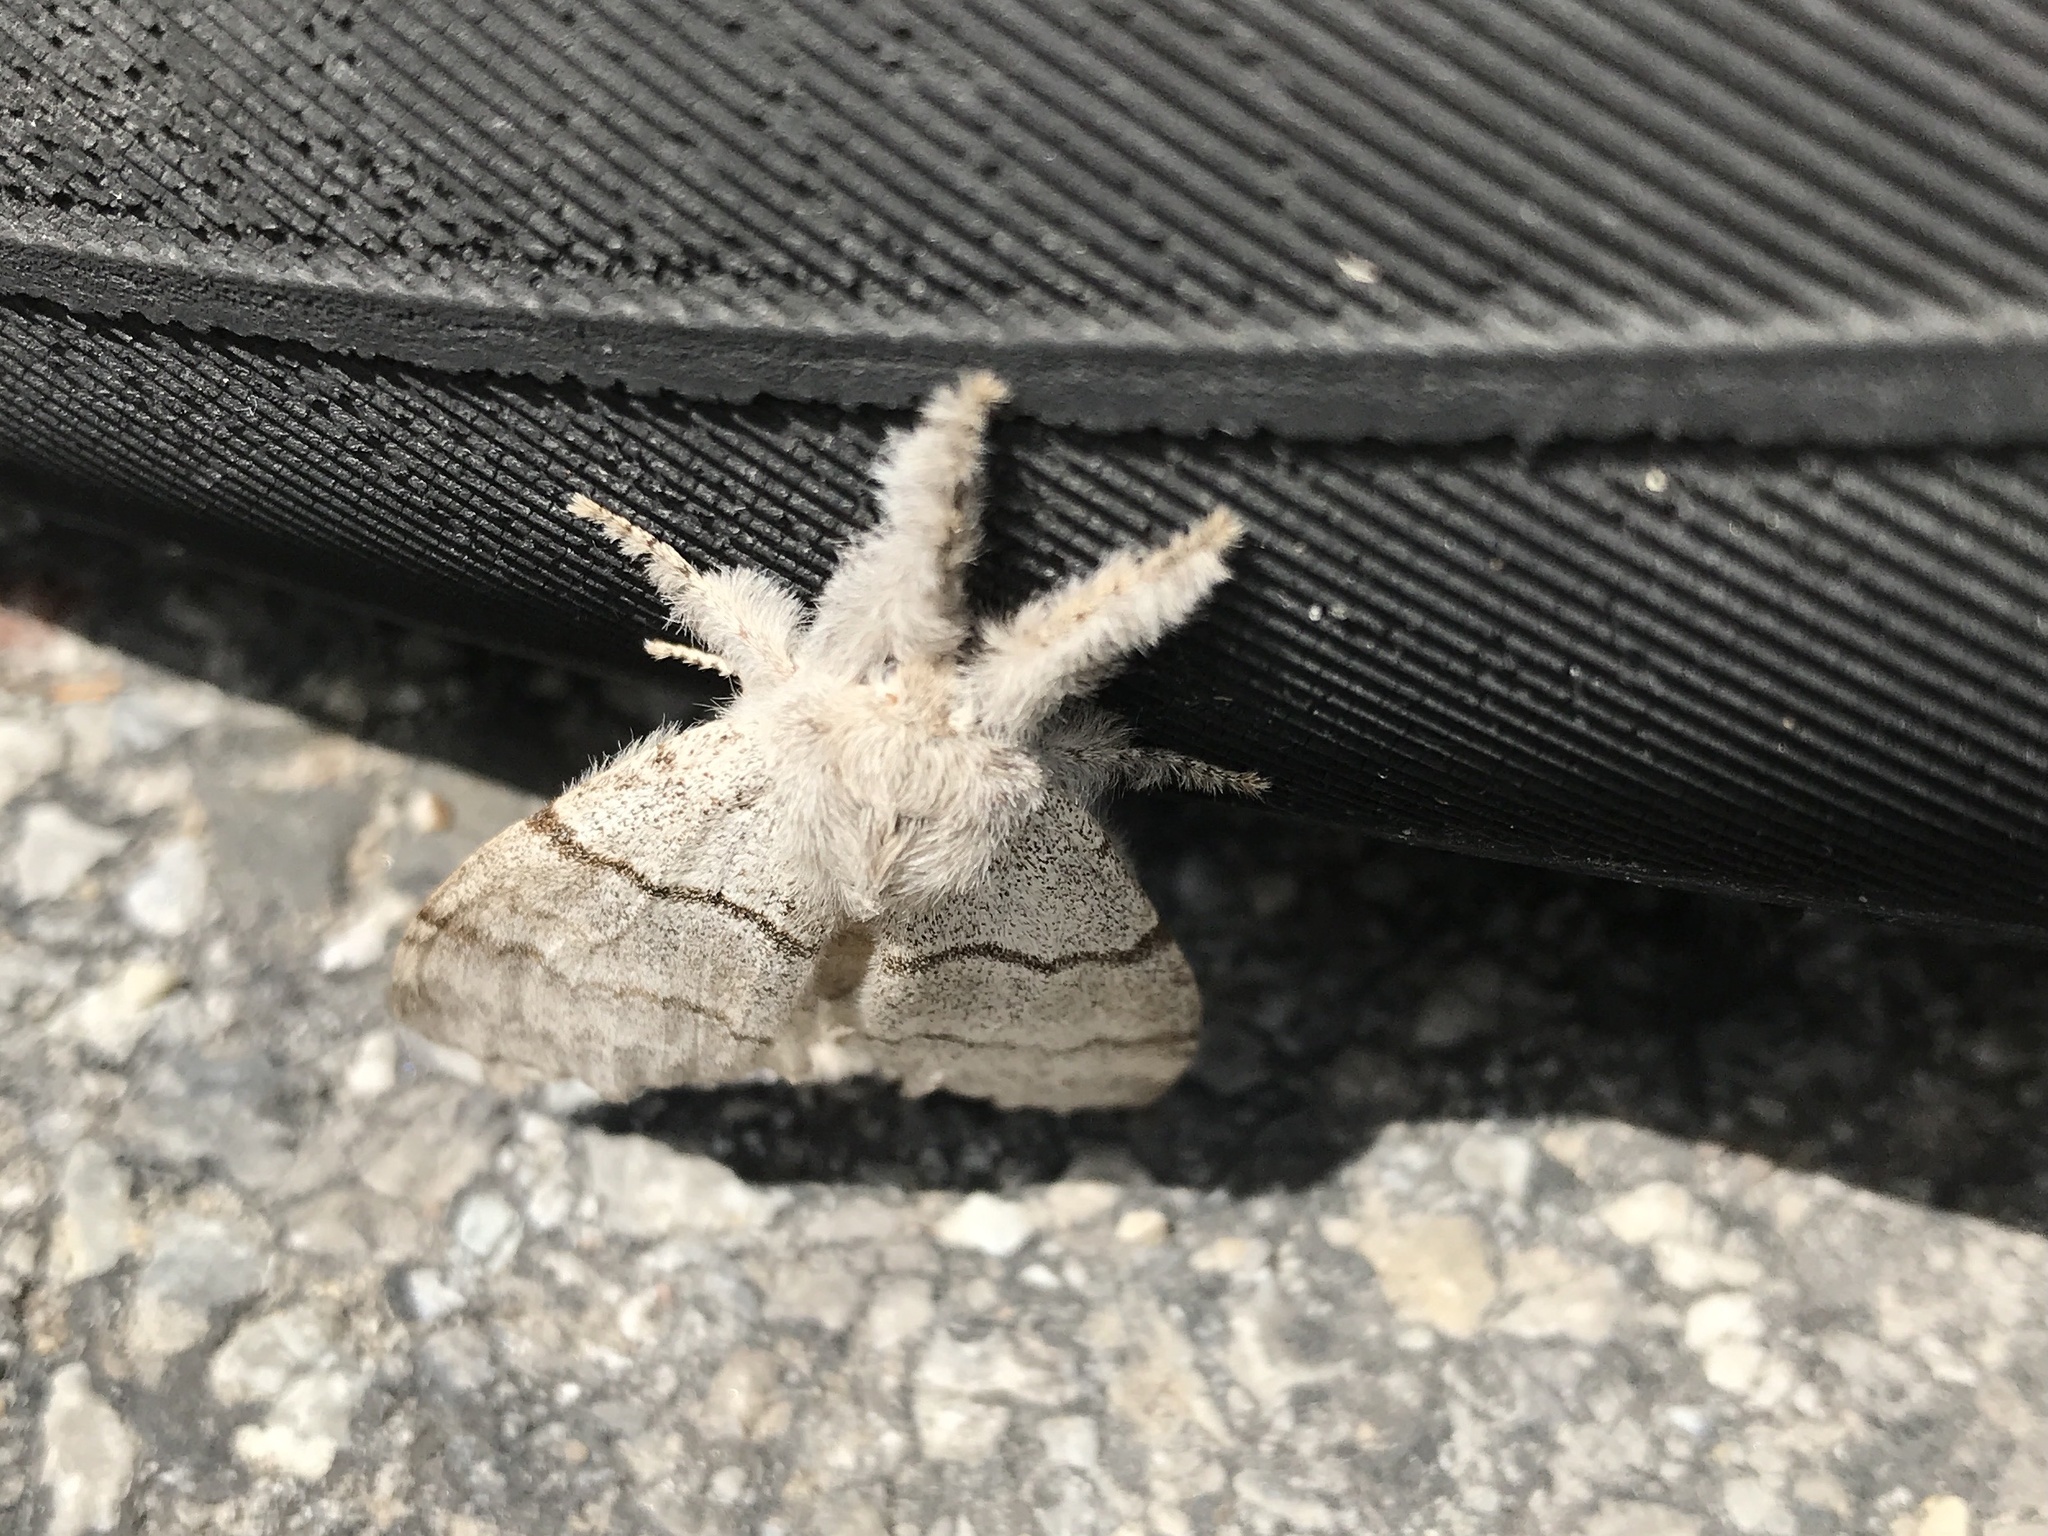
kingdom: Animalia
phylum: Arthropoda
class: Insecta
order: Lepidoptera
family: Erebidae
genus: Calliteara
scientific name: Calliteara pudibunda
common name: Pale tussock
